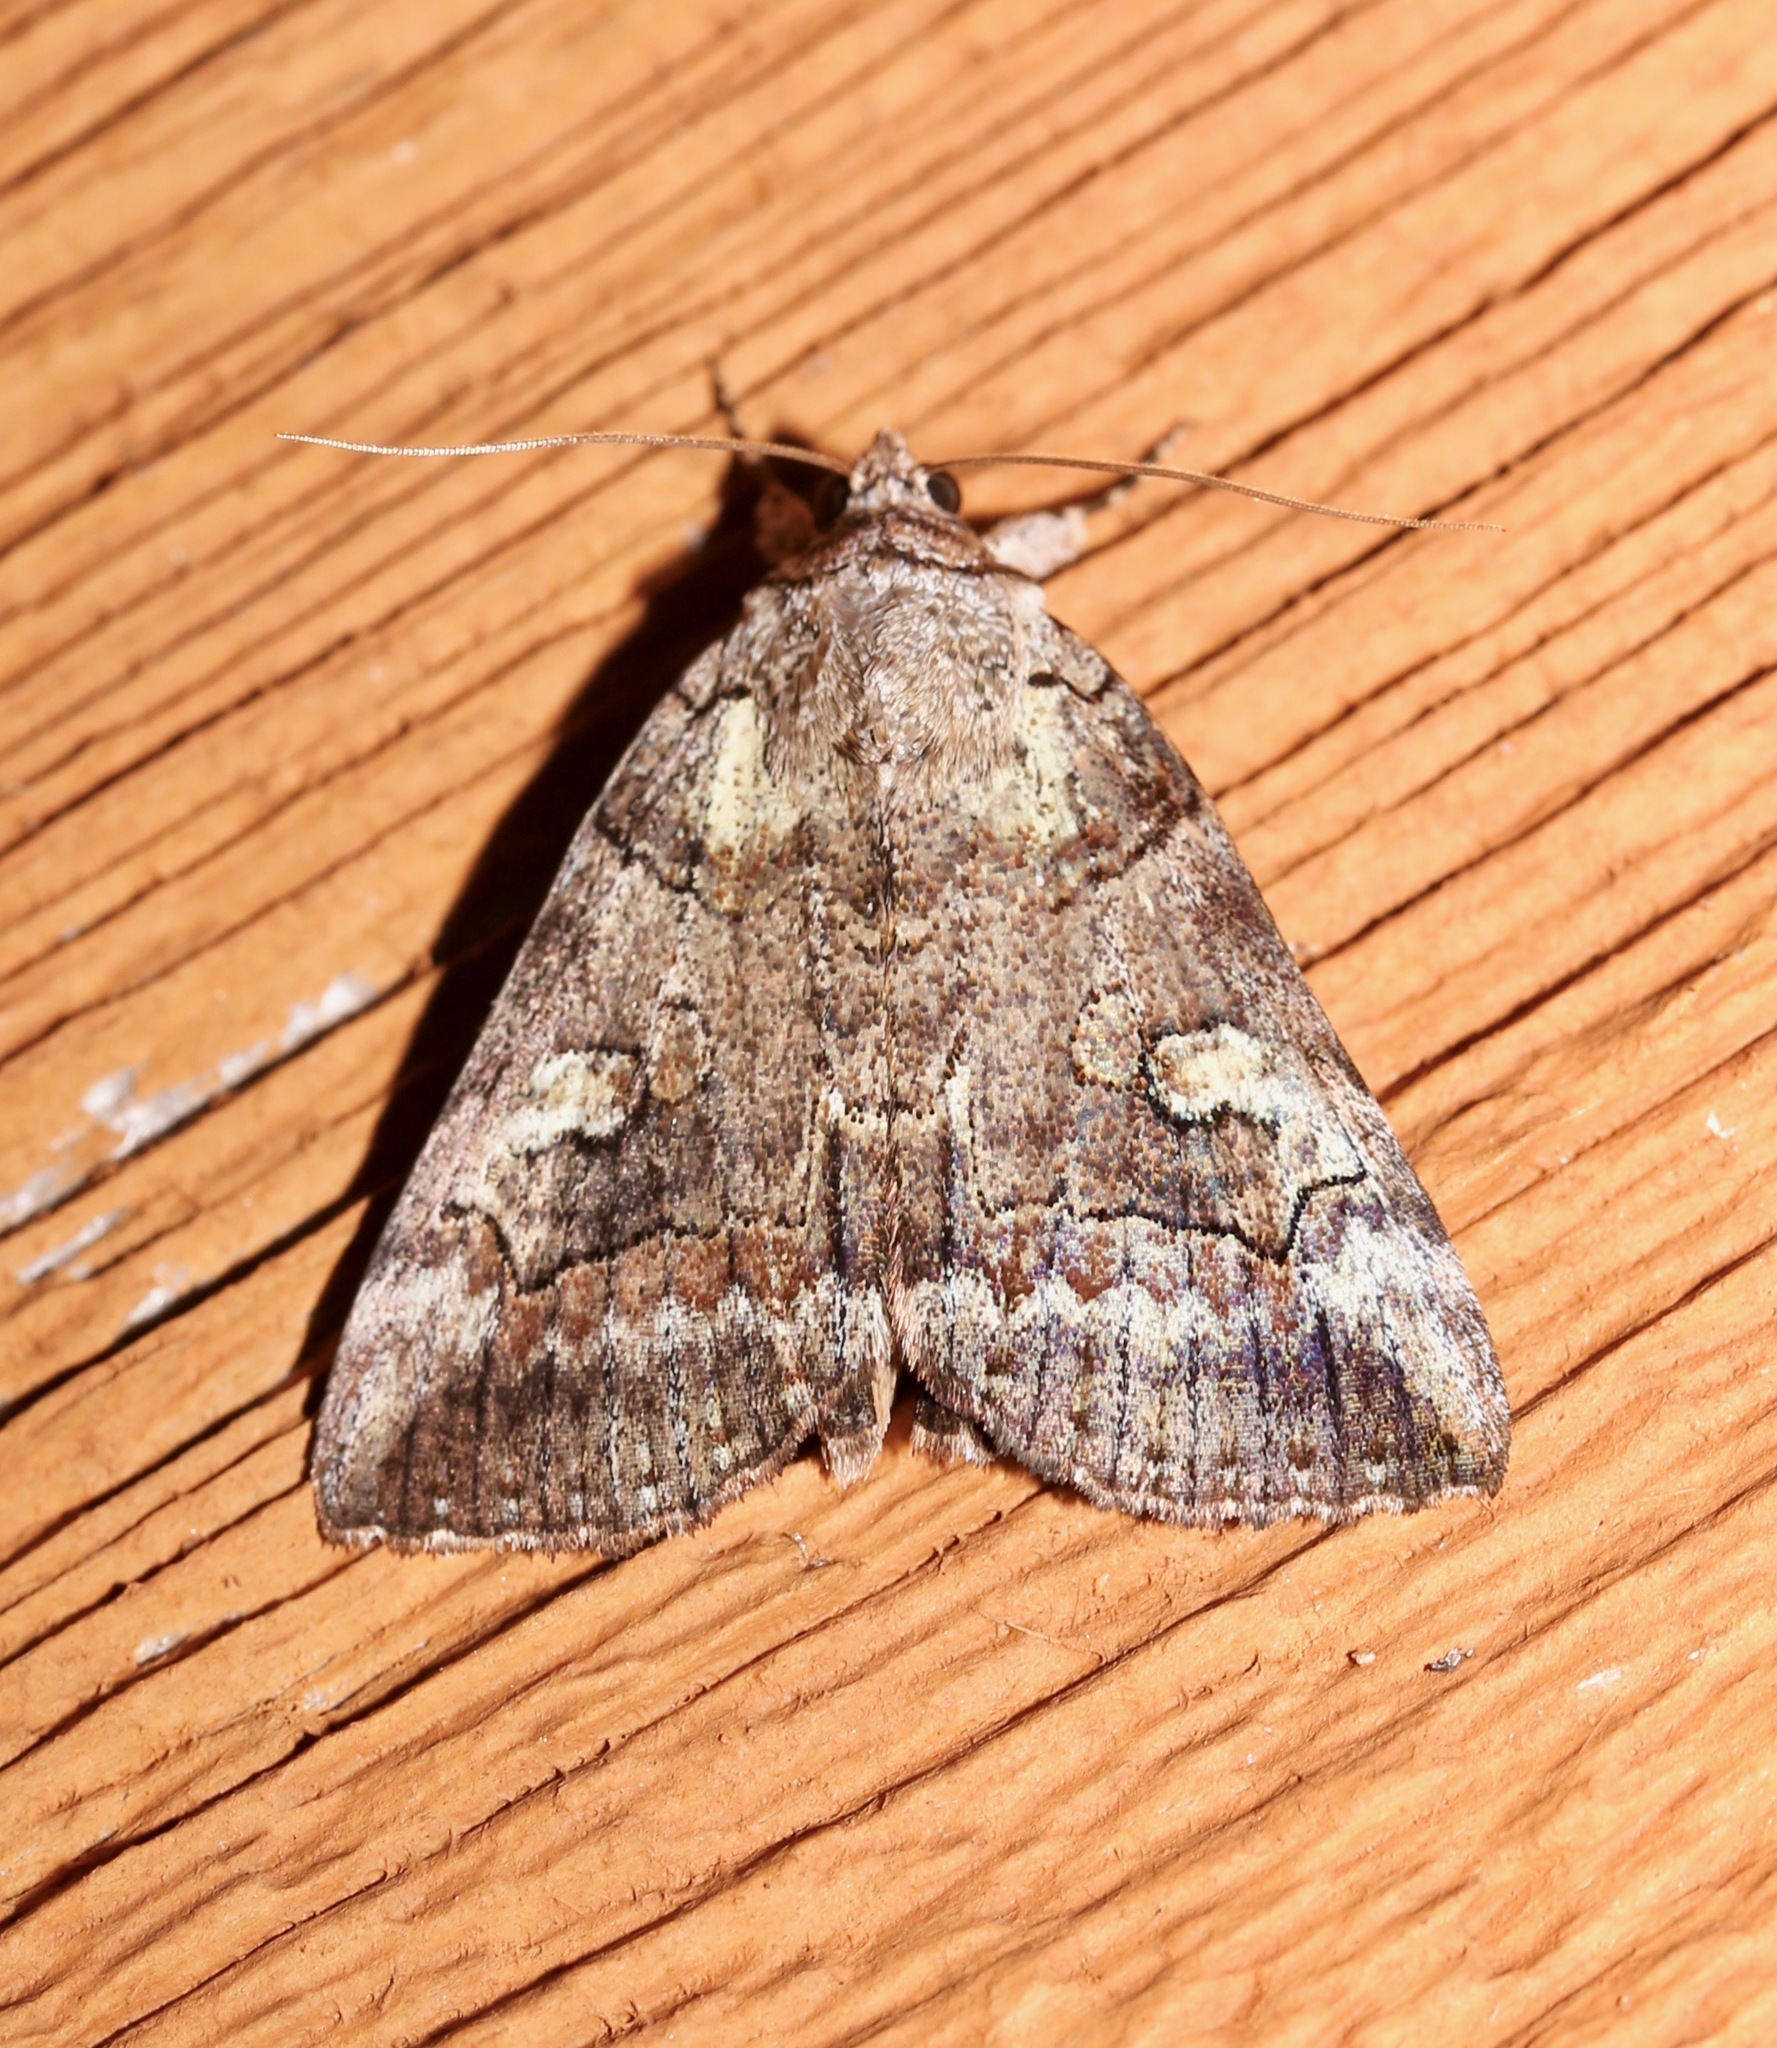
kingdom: Animalia
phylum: Arthropoda
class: Insecta
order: Lepidoptera
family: Erebidae
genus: Catocala
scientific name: Catocala similis
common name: Similar underwing
